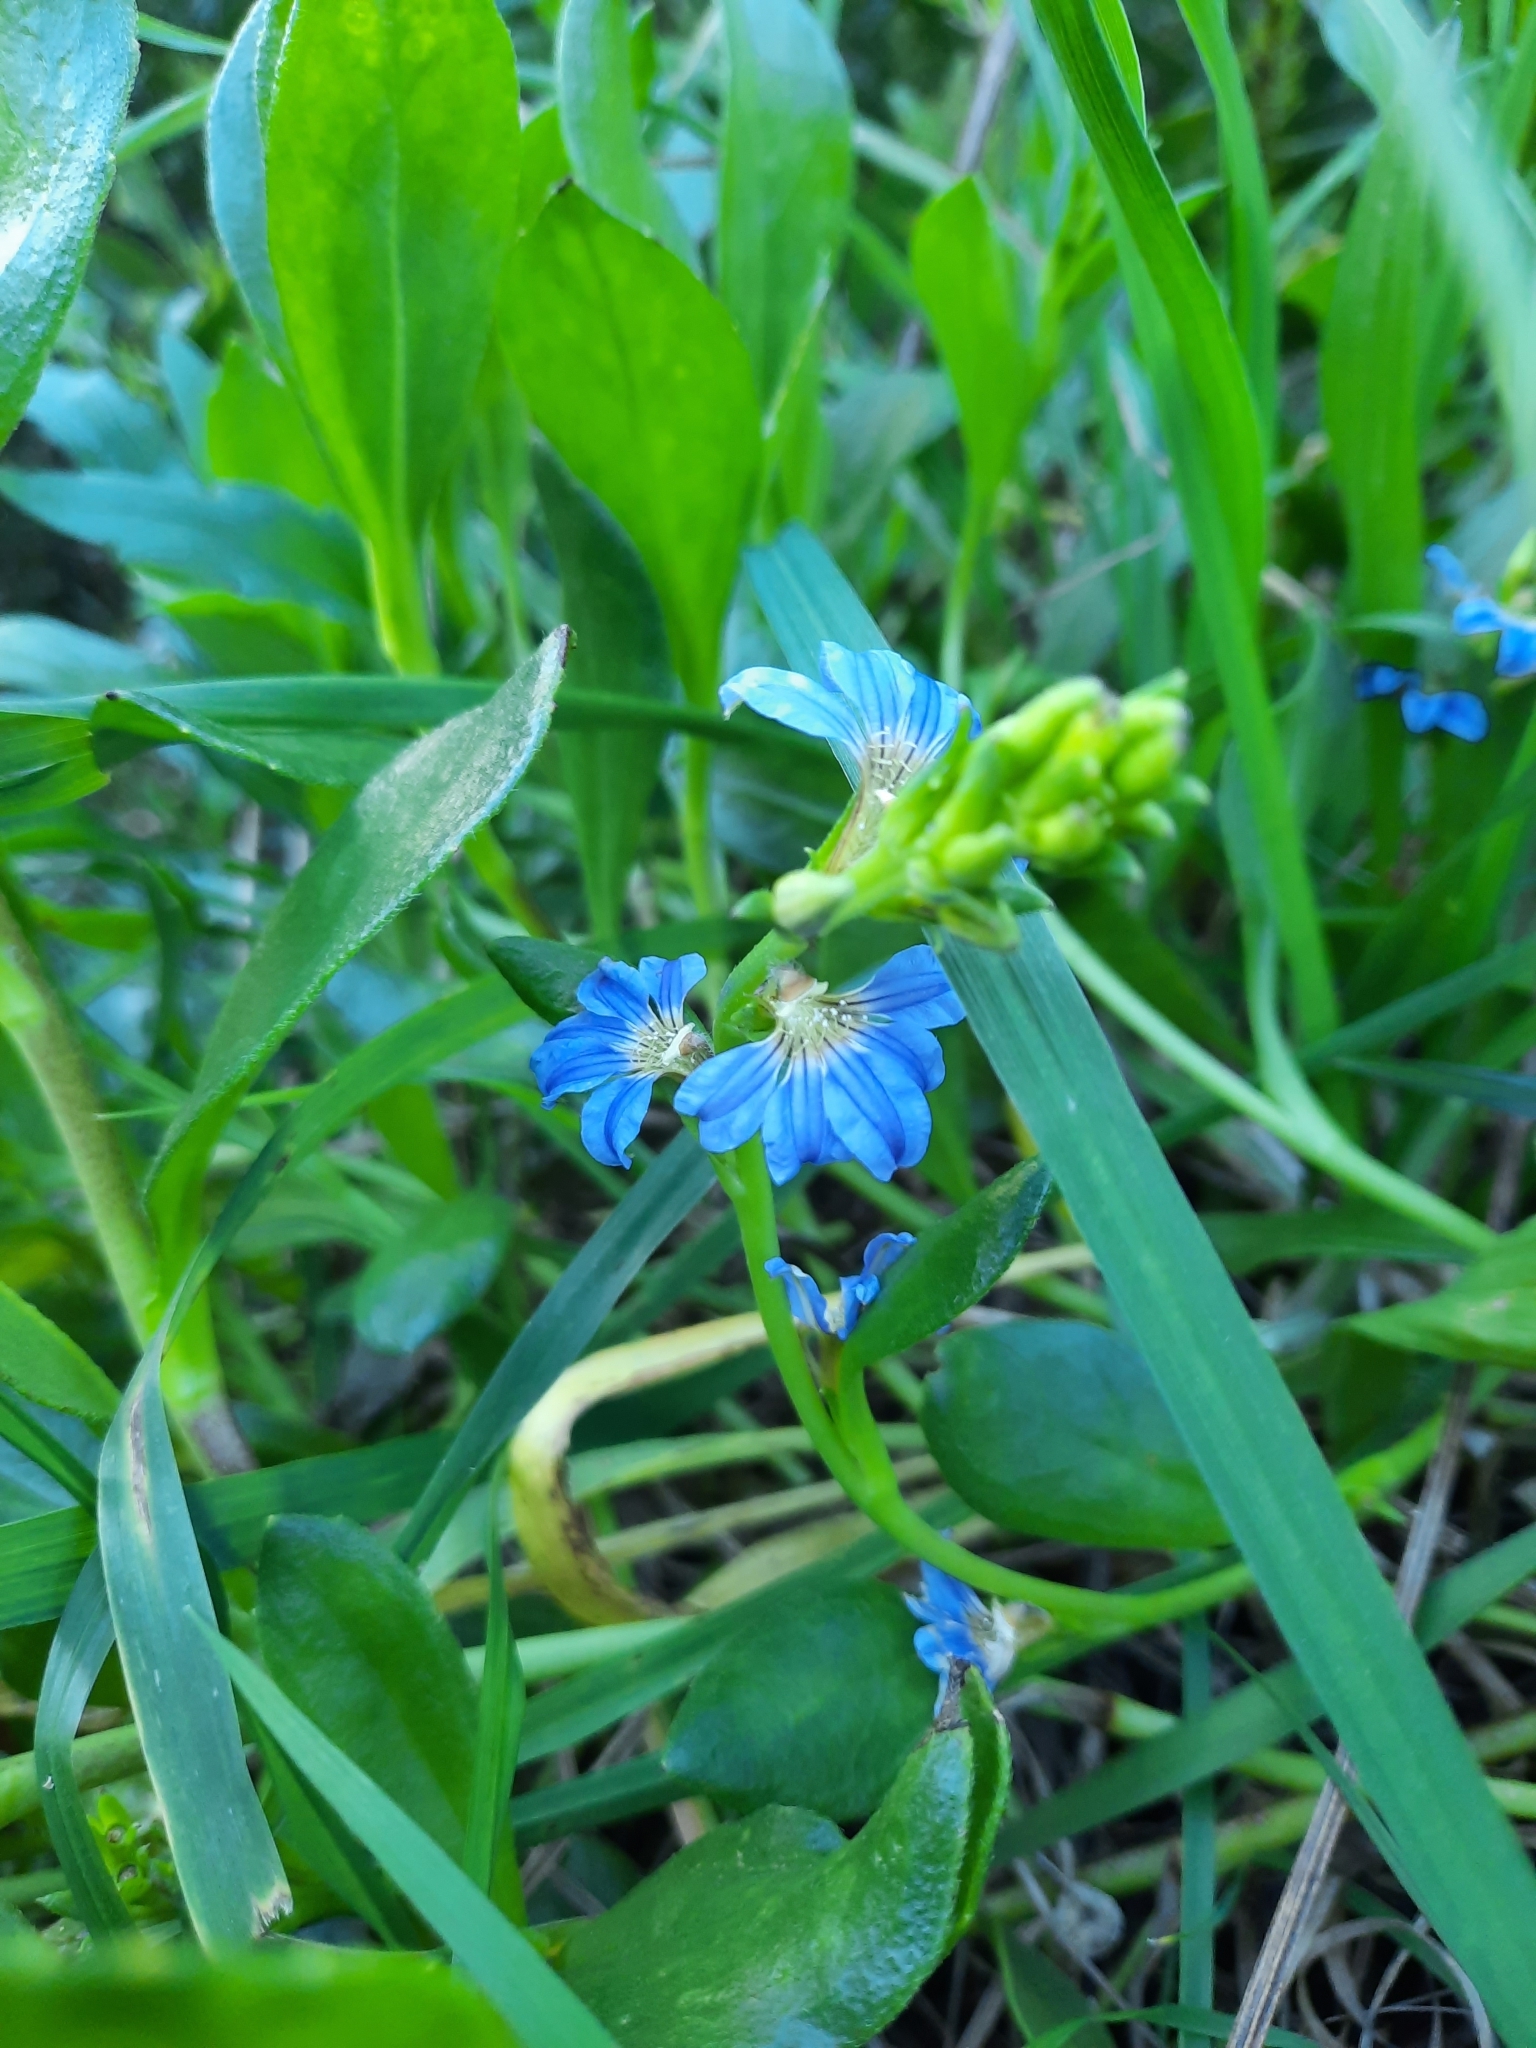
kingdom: Plantae
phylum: Tracheophyta
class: Magnoliopsida
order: Asterales
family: Goodeniaceae
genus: Scaevola
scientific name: Scaevola calendulacea
